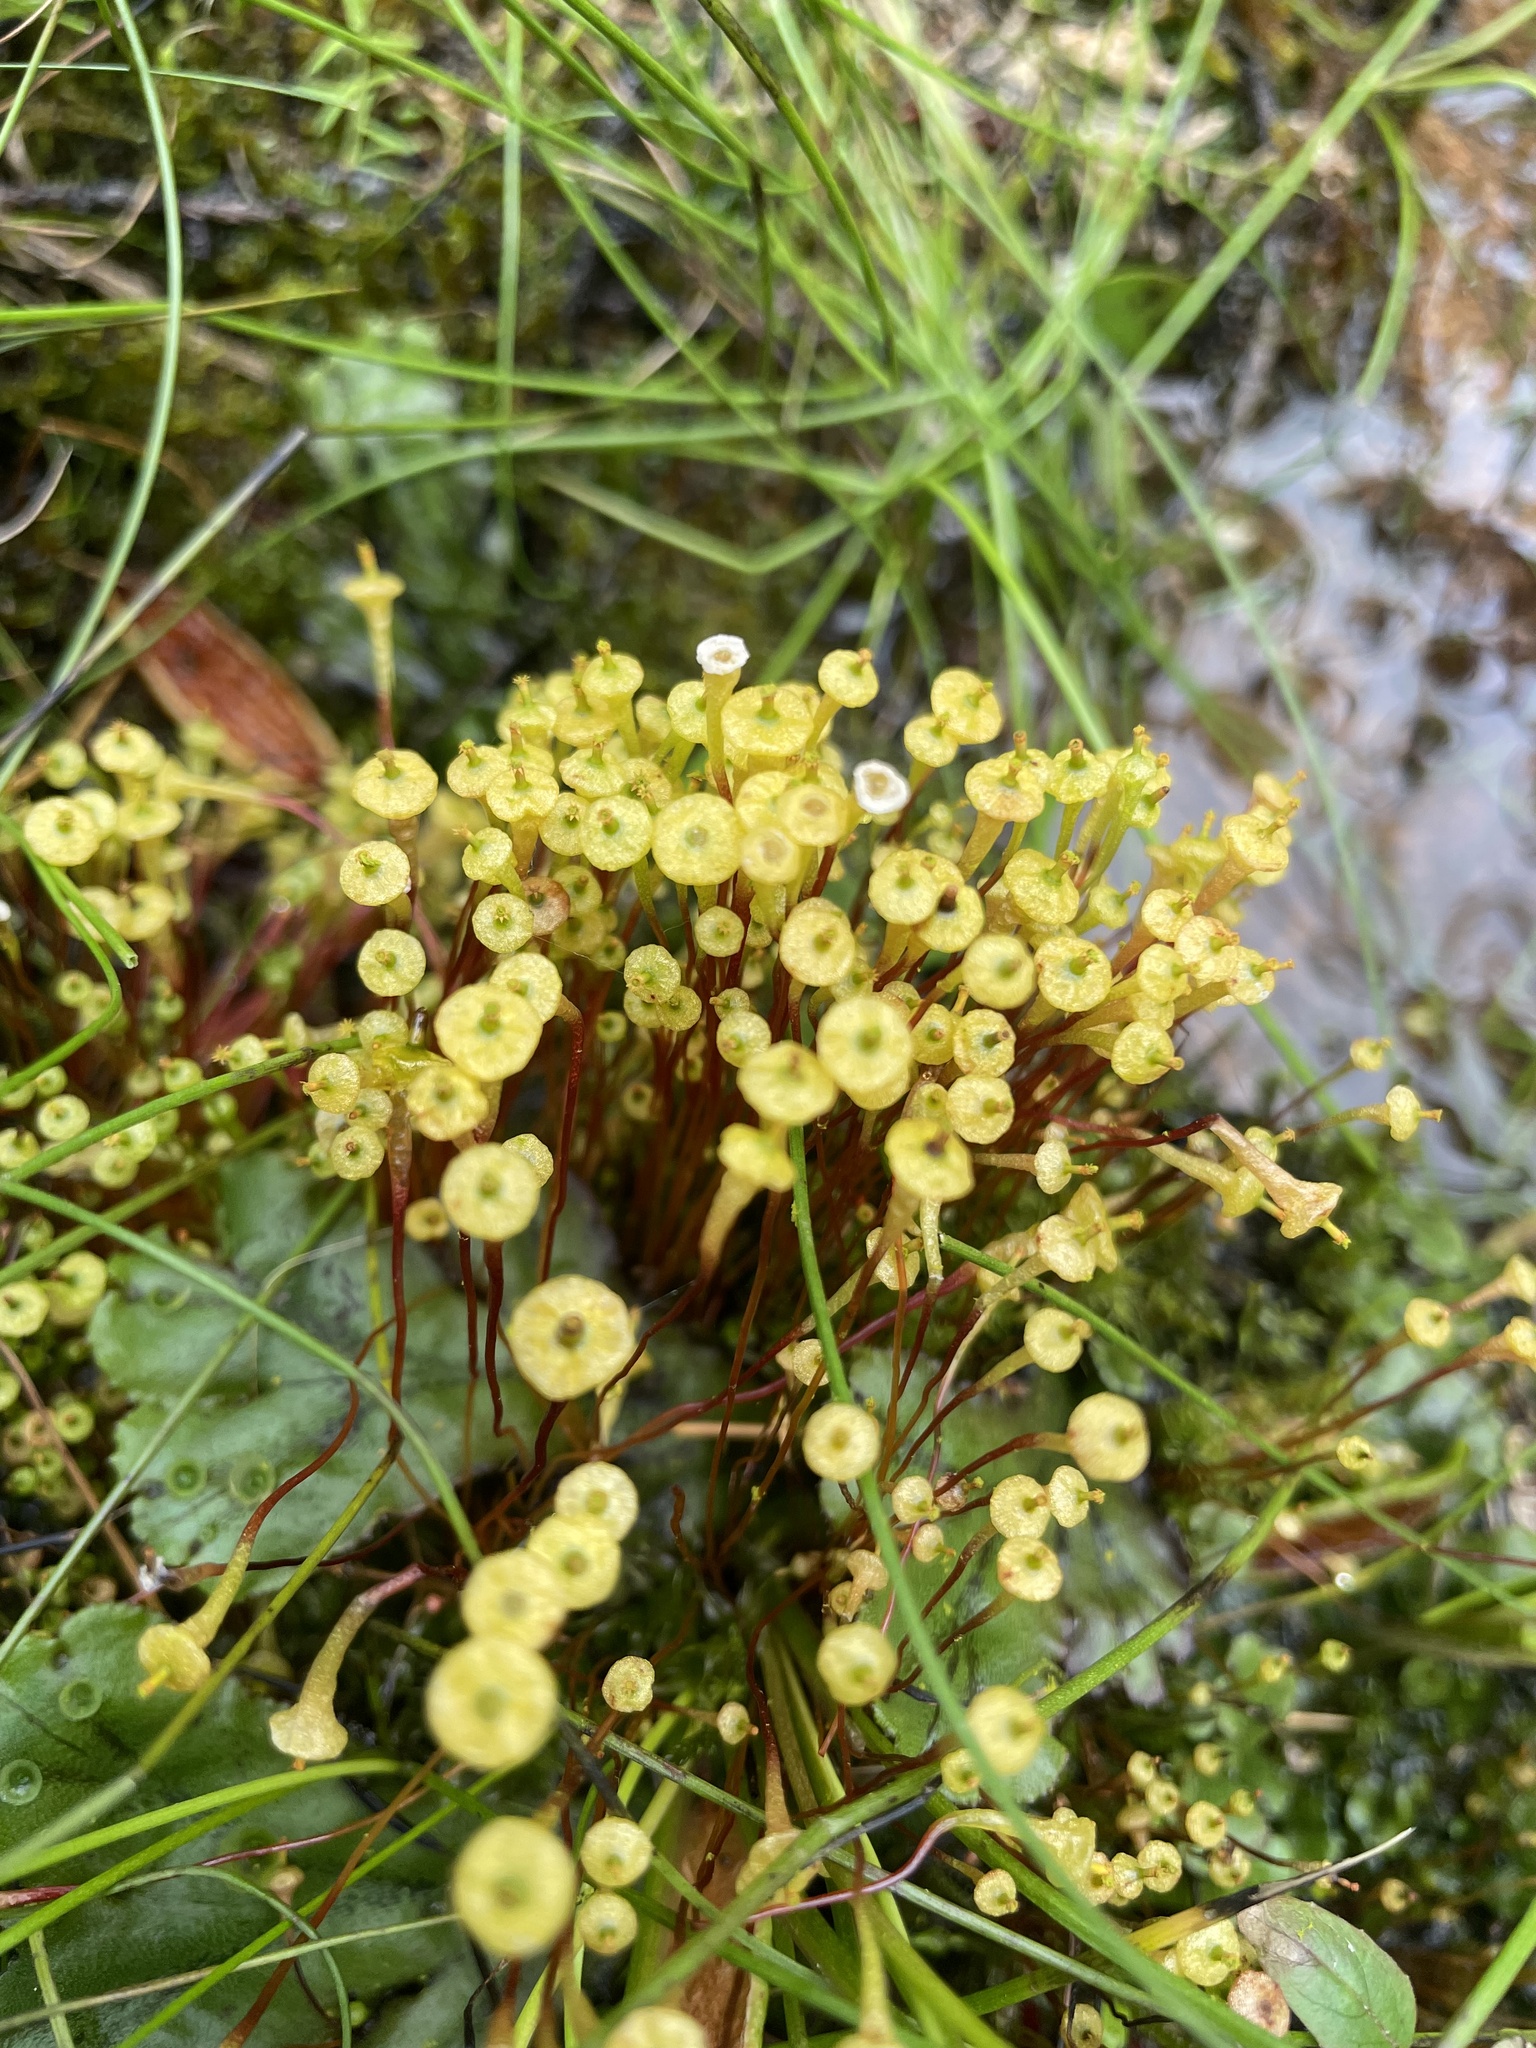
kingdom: Plantae
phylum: Bryophyta
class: Bryopsida
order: Splachnales
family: Splachnaceae
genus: Splachnum
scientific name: Splachnum ampullaceum
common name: Cruet dung moss
